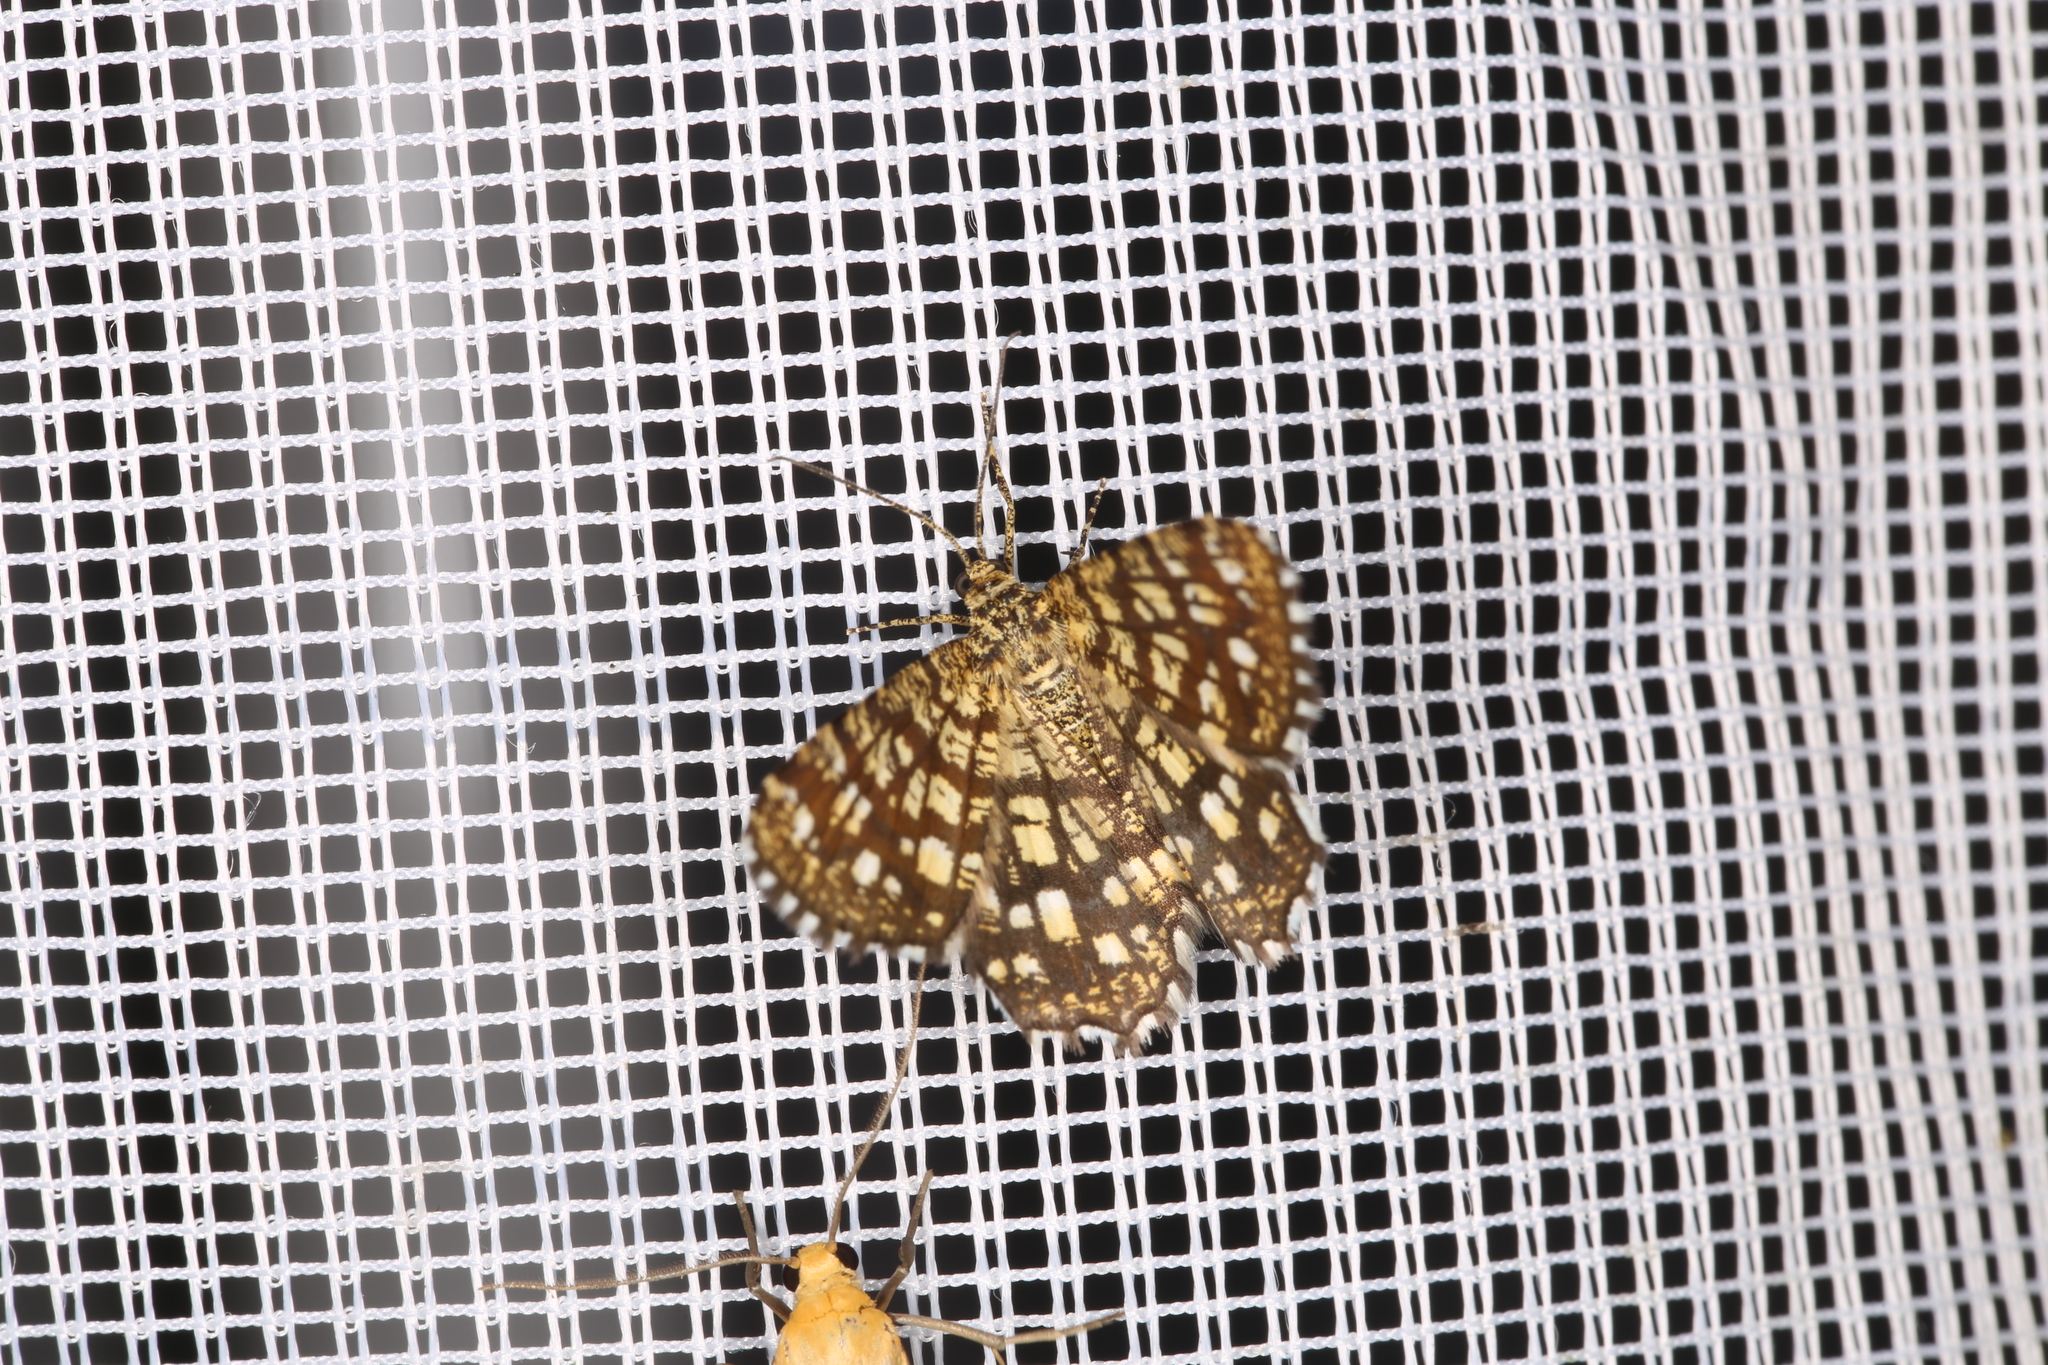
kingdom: Animalia
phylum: Arthropoda
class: Insecta
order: Lepidoptera
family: Geometridae
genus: Chiasmia
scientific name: Chiasmia clathrata
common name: Latticed heath
